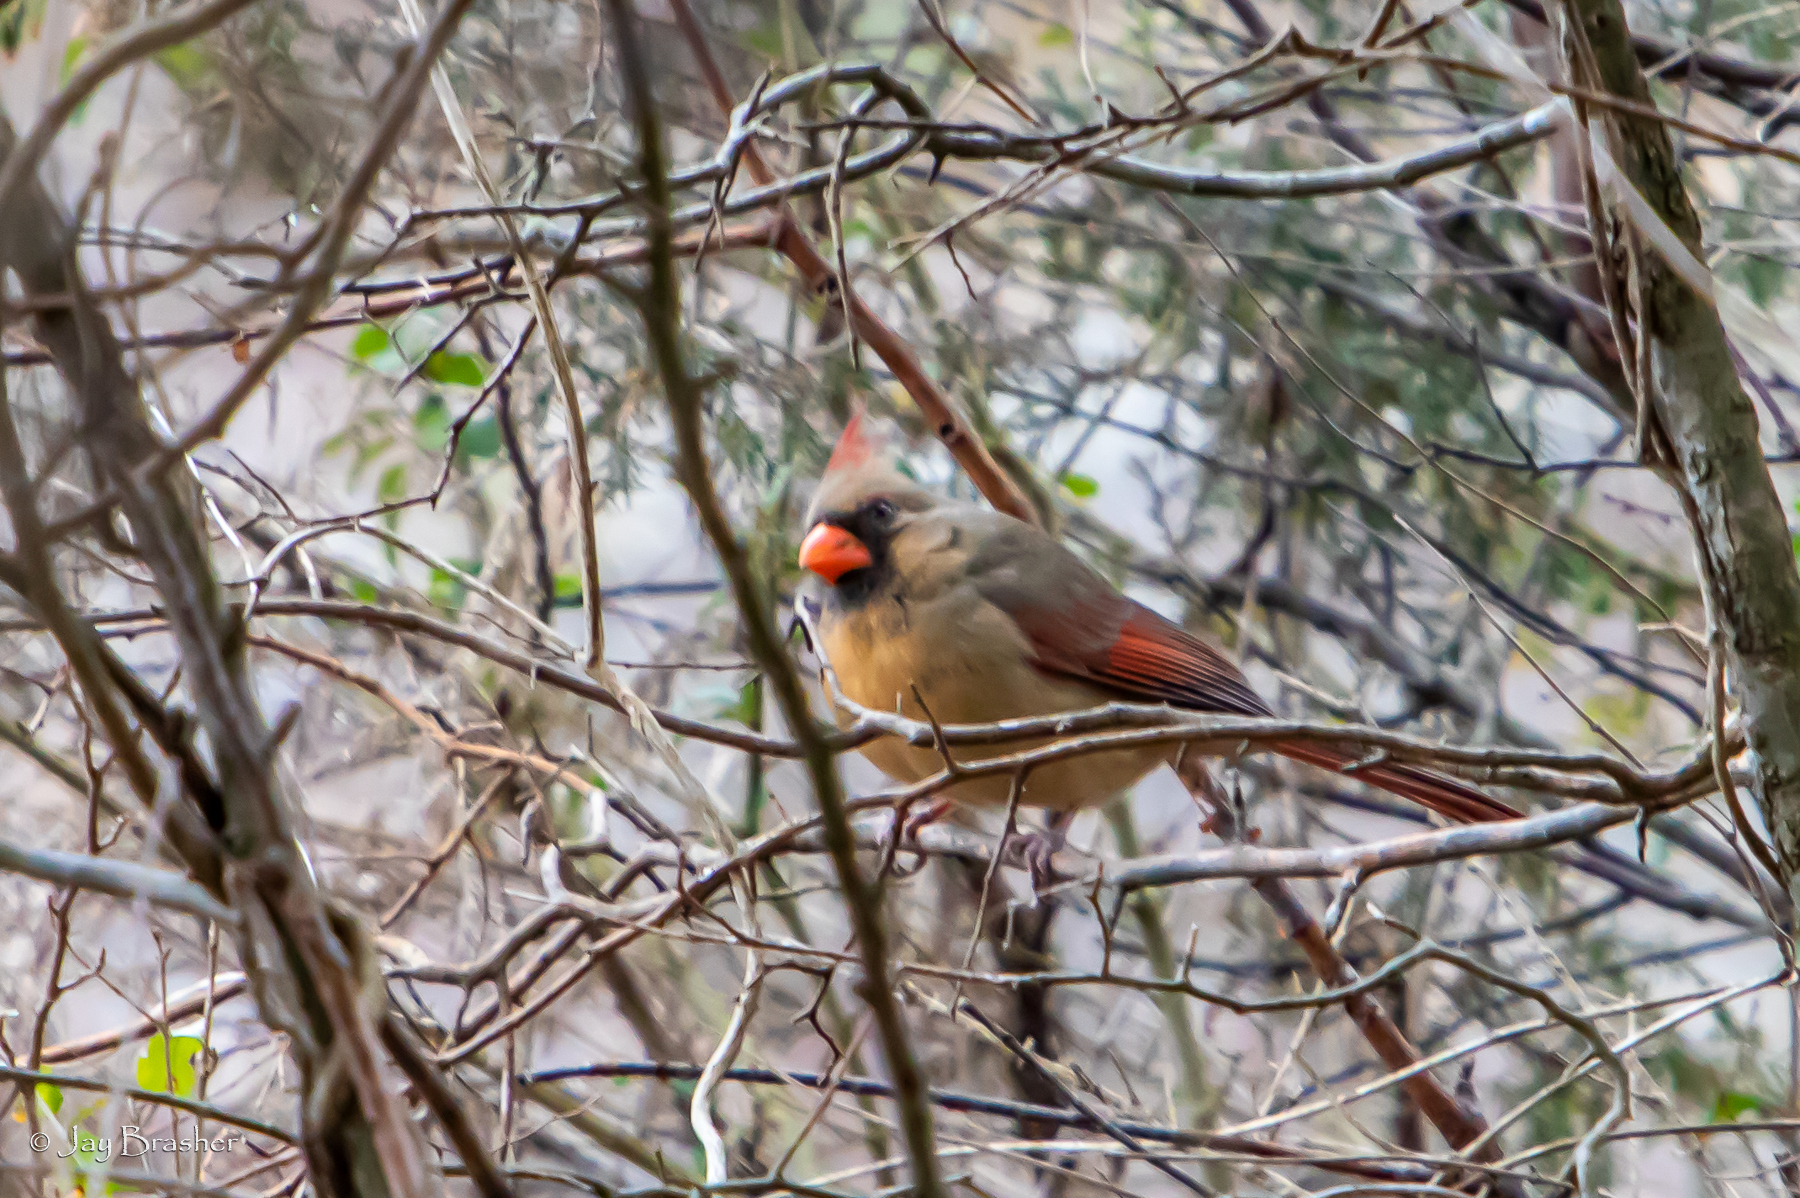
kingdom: Animalia
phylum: Chordata
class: Aves
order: Passeriformes
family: Cardinalidae
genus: Cardinalis
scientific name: Cardinalis cardinalis
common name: Northern cardinal
